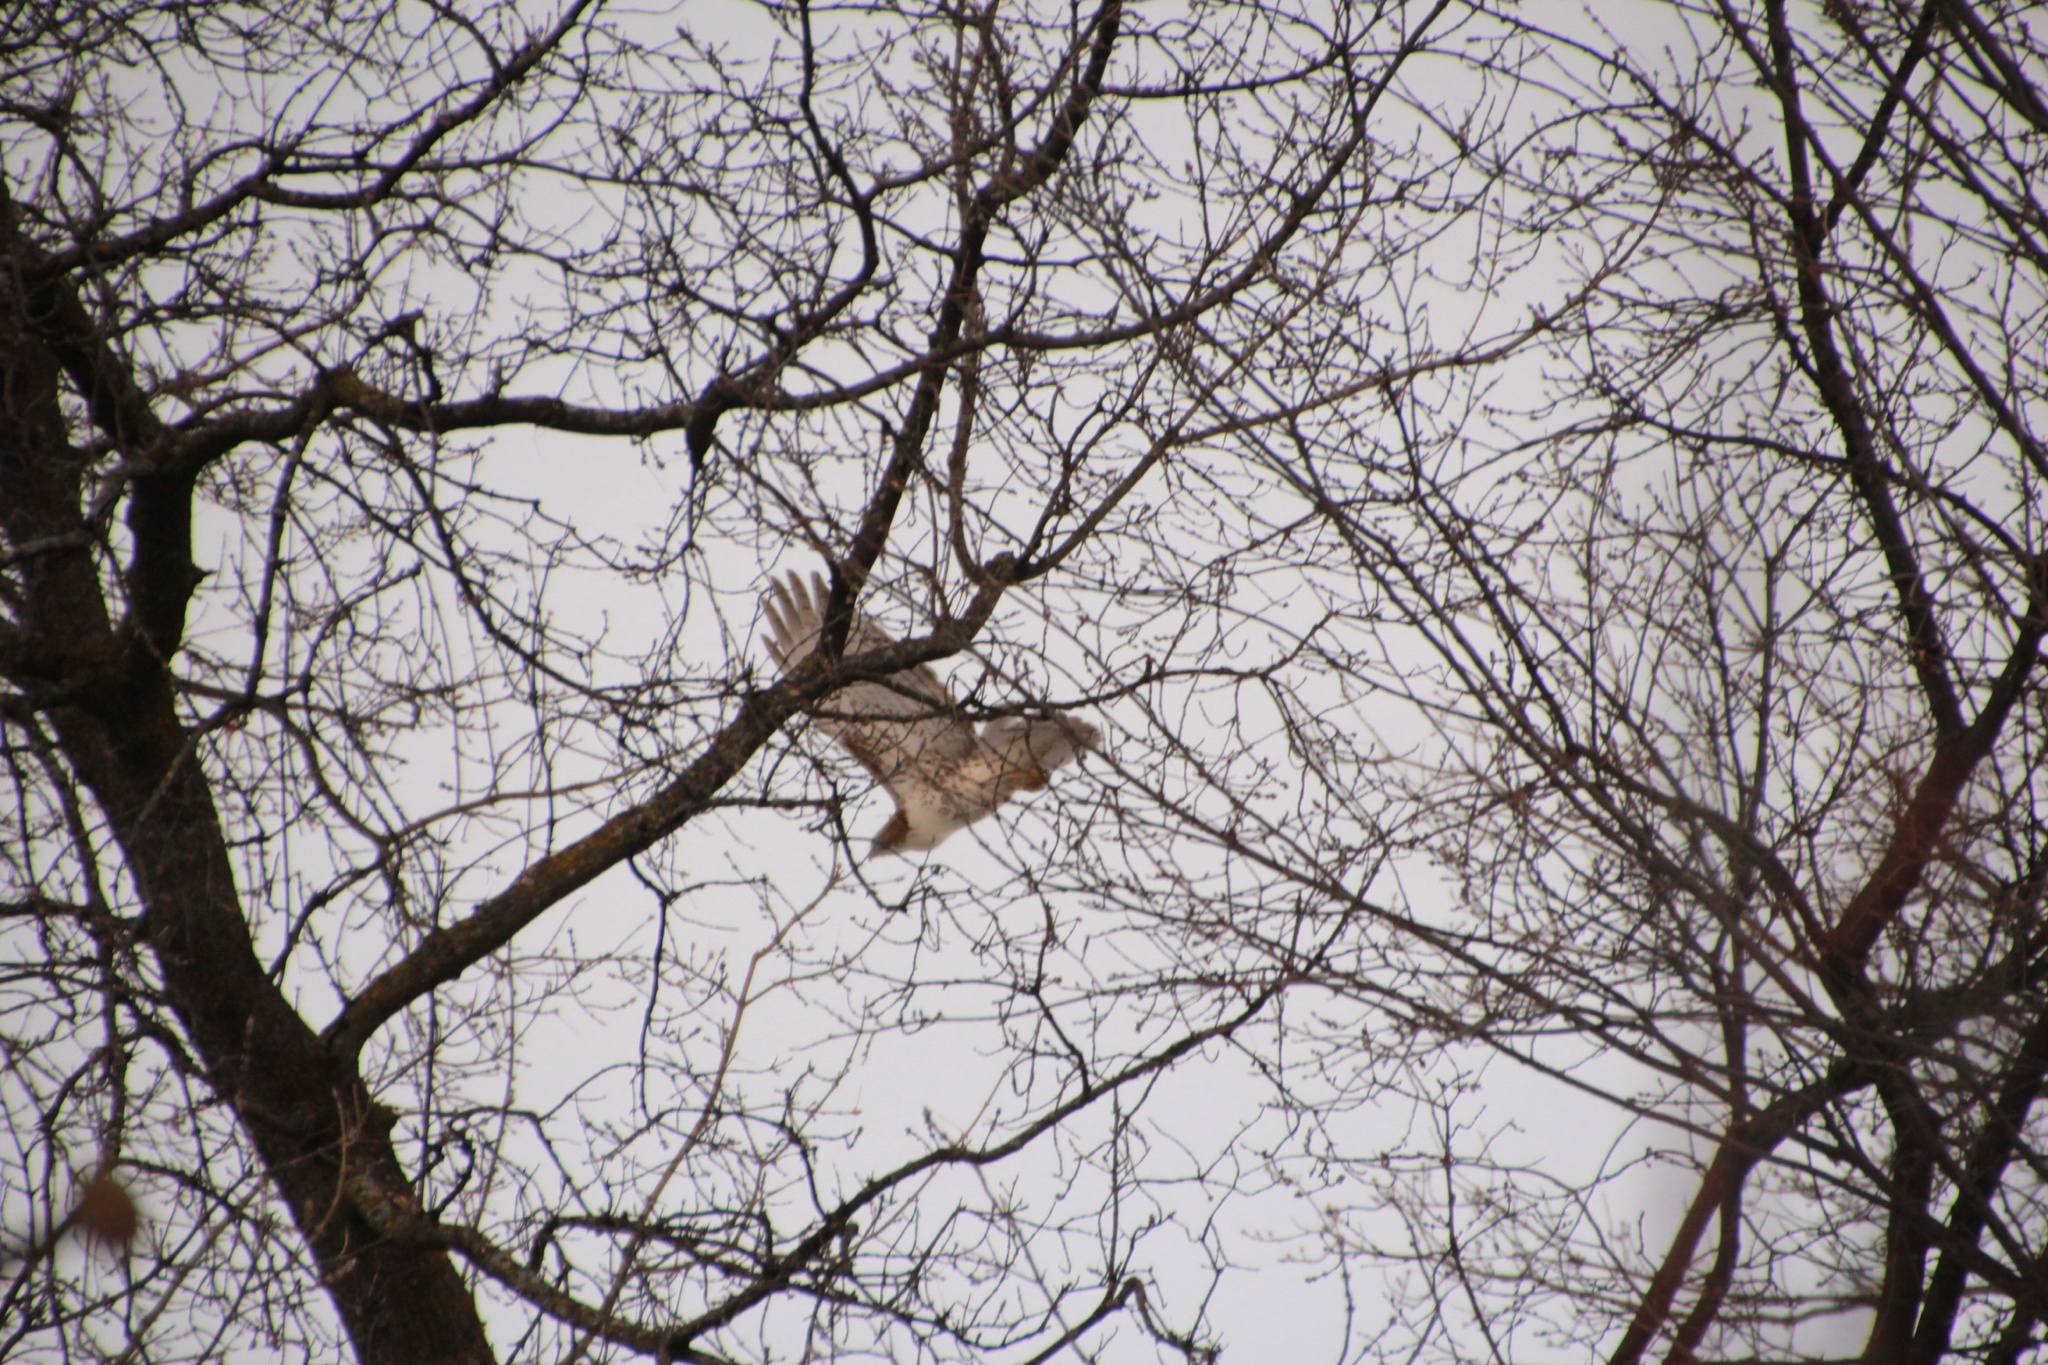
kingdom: Animalia
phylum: Chordata
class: Aves
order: Accipitriformes
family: Accipitridae
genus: Buteo
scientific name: Buteo jamaicensis
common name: Red-tailed hawk
